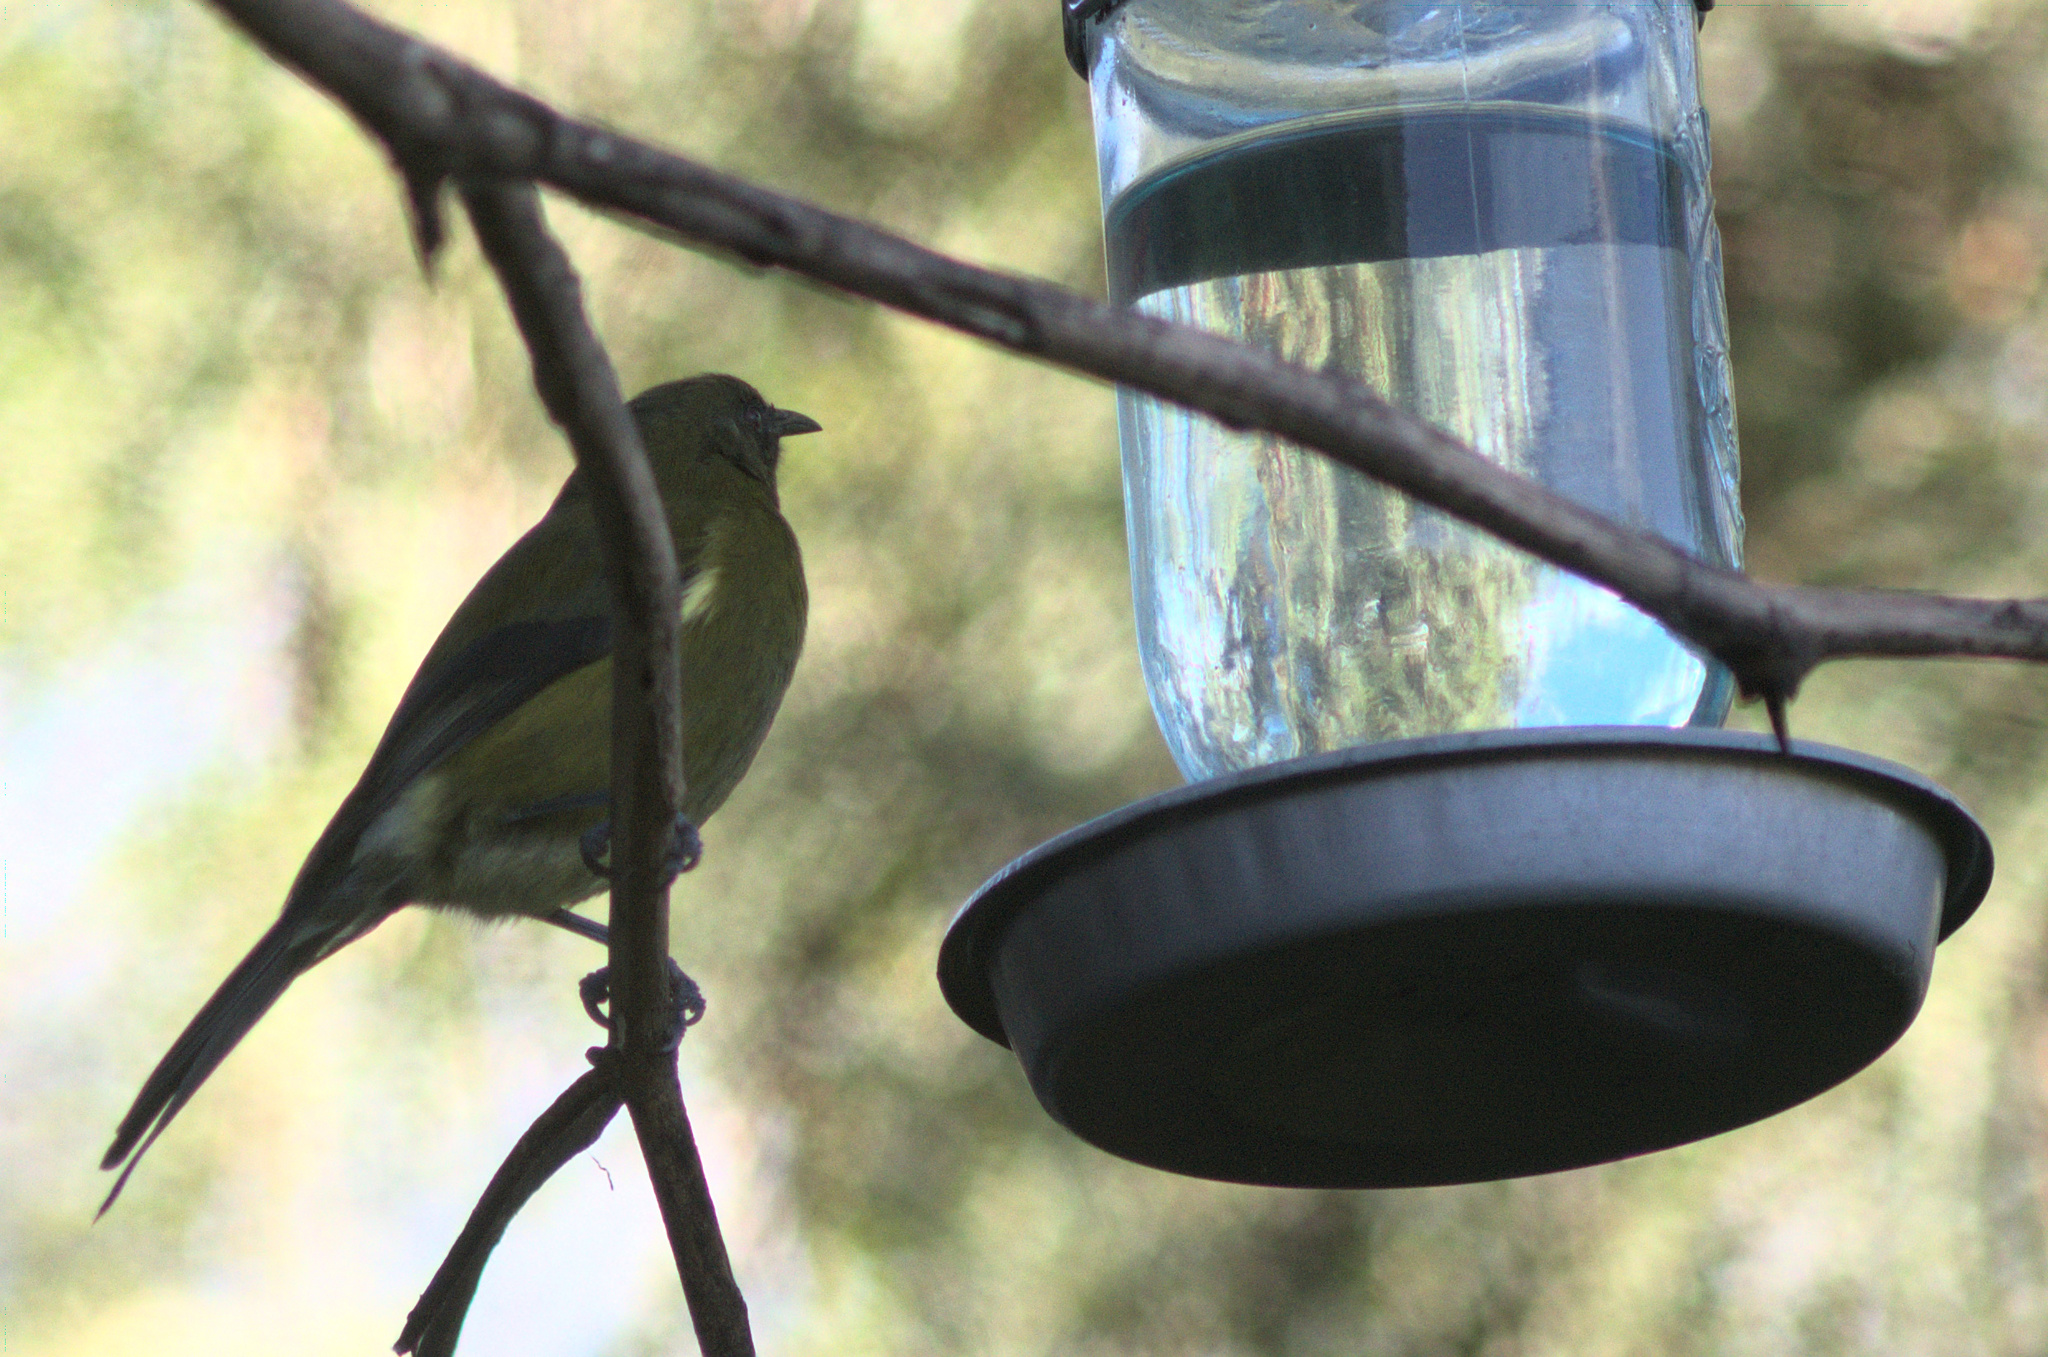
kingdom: Animalia
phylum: Chordata
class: Aves
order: Passeriformes
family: Meliphagidae
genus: Anthornis
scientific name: Anthornis melanura
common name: New zealand bellbird
